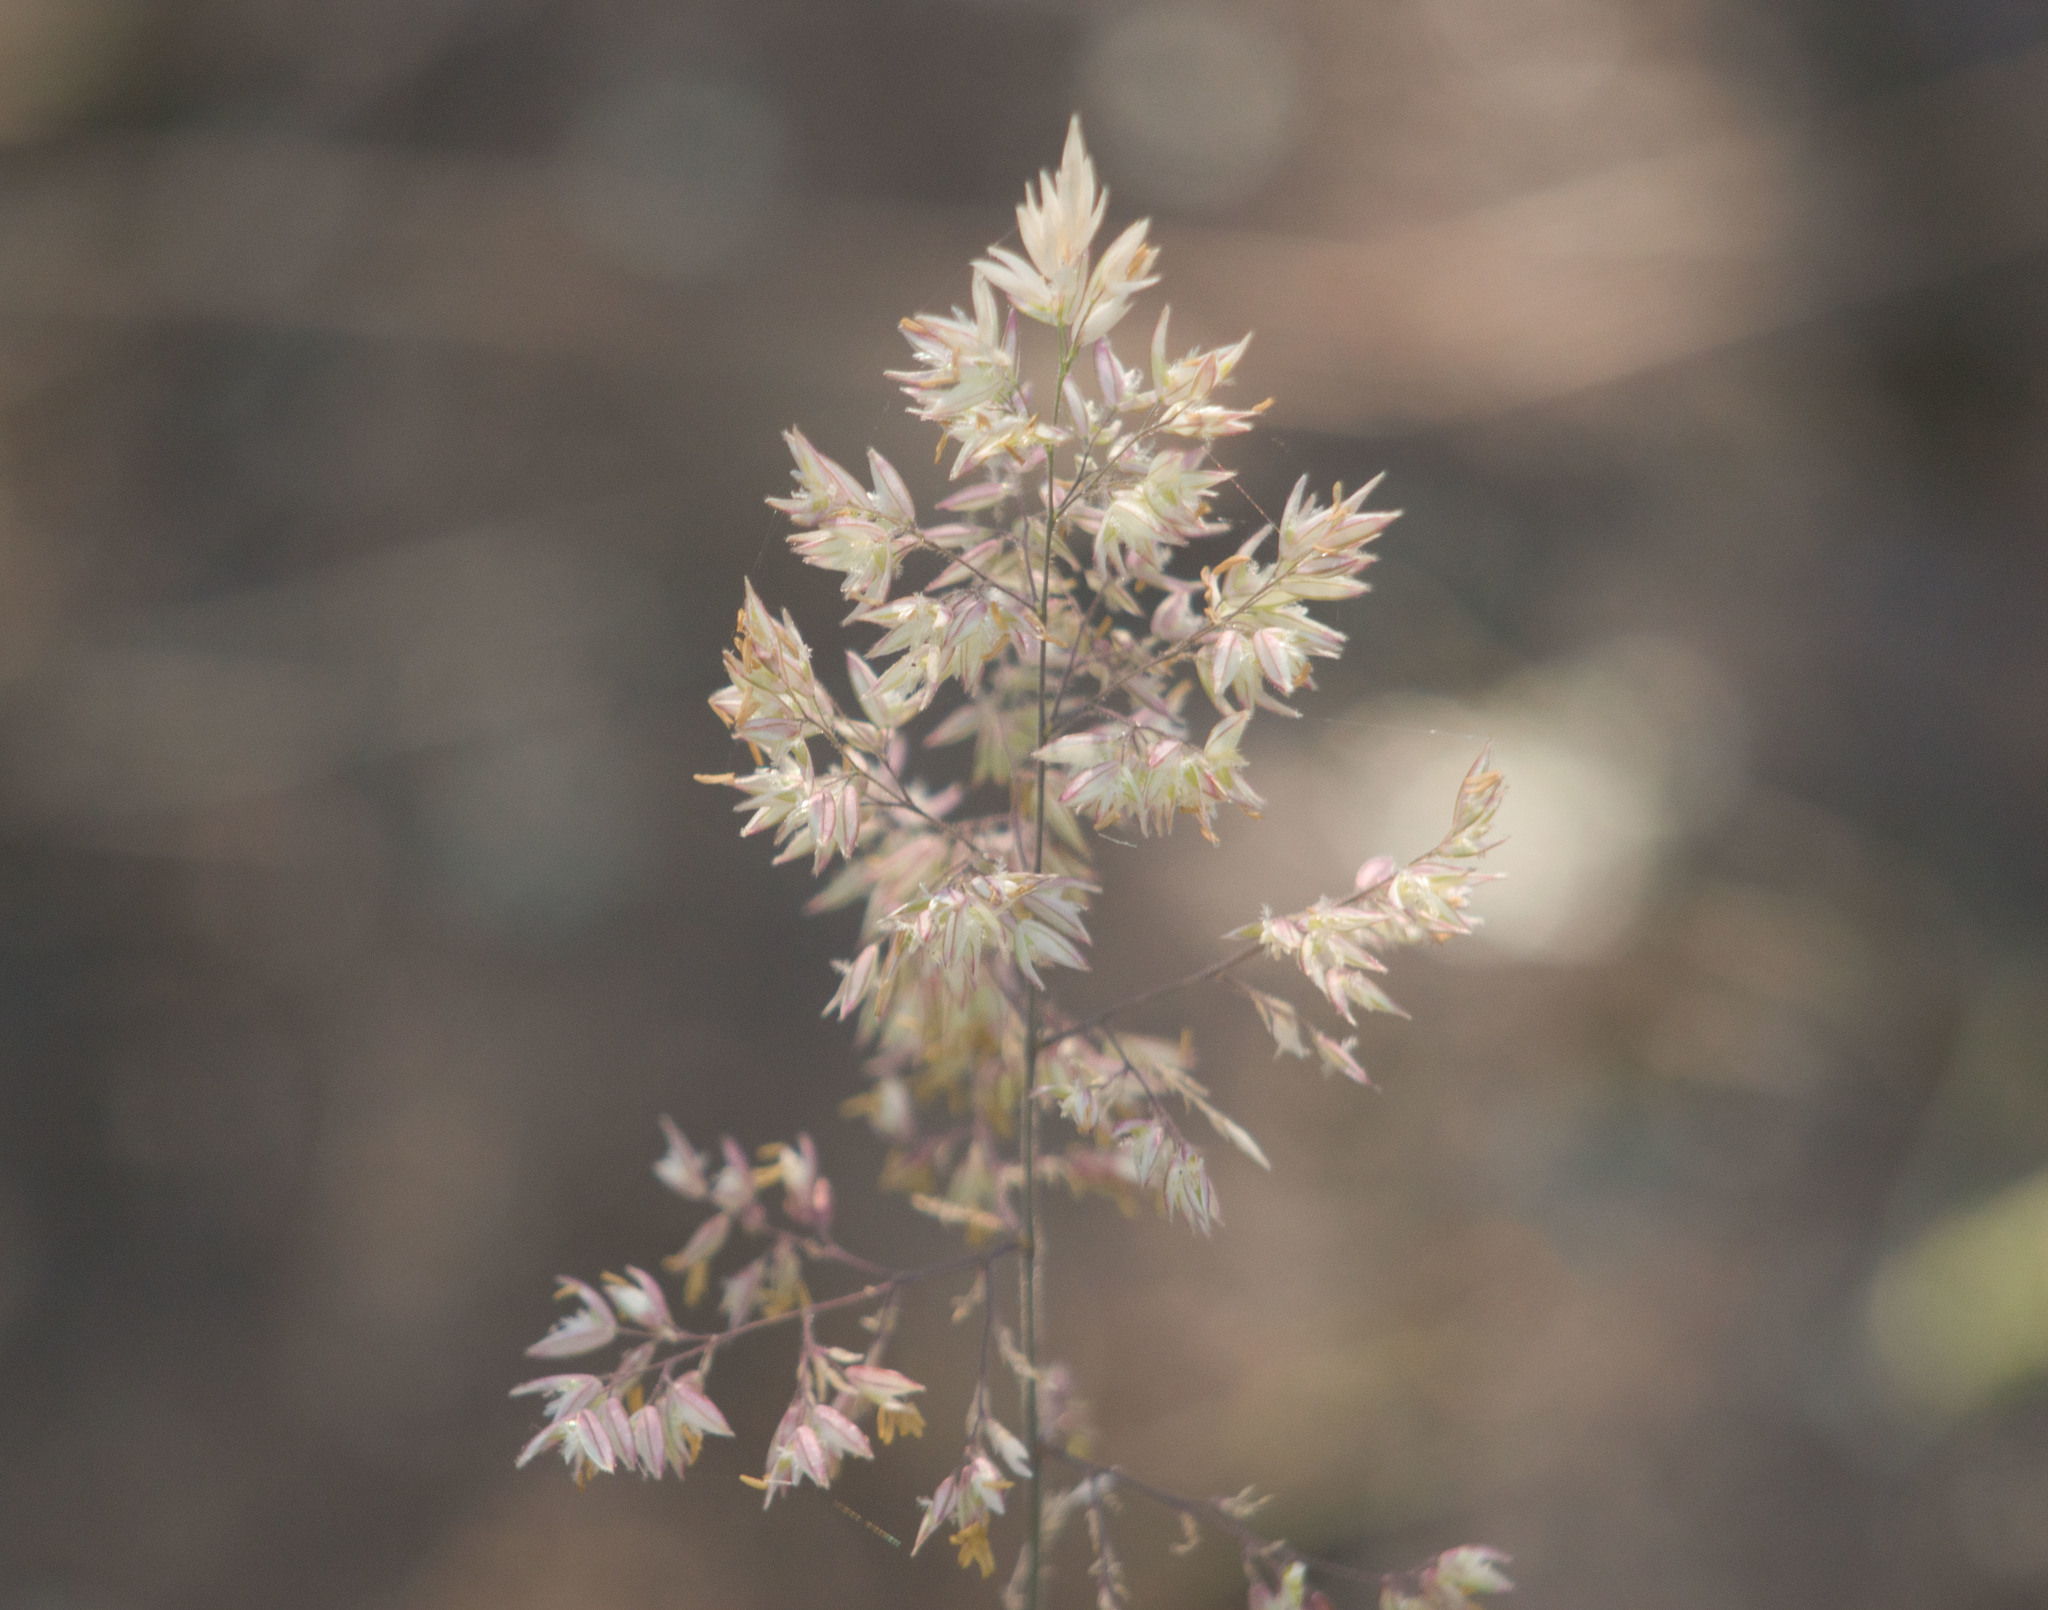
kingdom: Plantae
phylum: Tracheophyta
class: Liliopsida
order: Poales
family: Poaceae
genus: Holcus
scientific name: Holcus lanatus
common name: Yorkshire-fog
